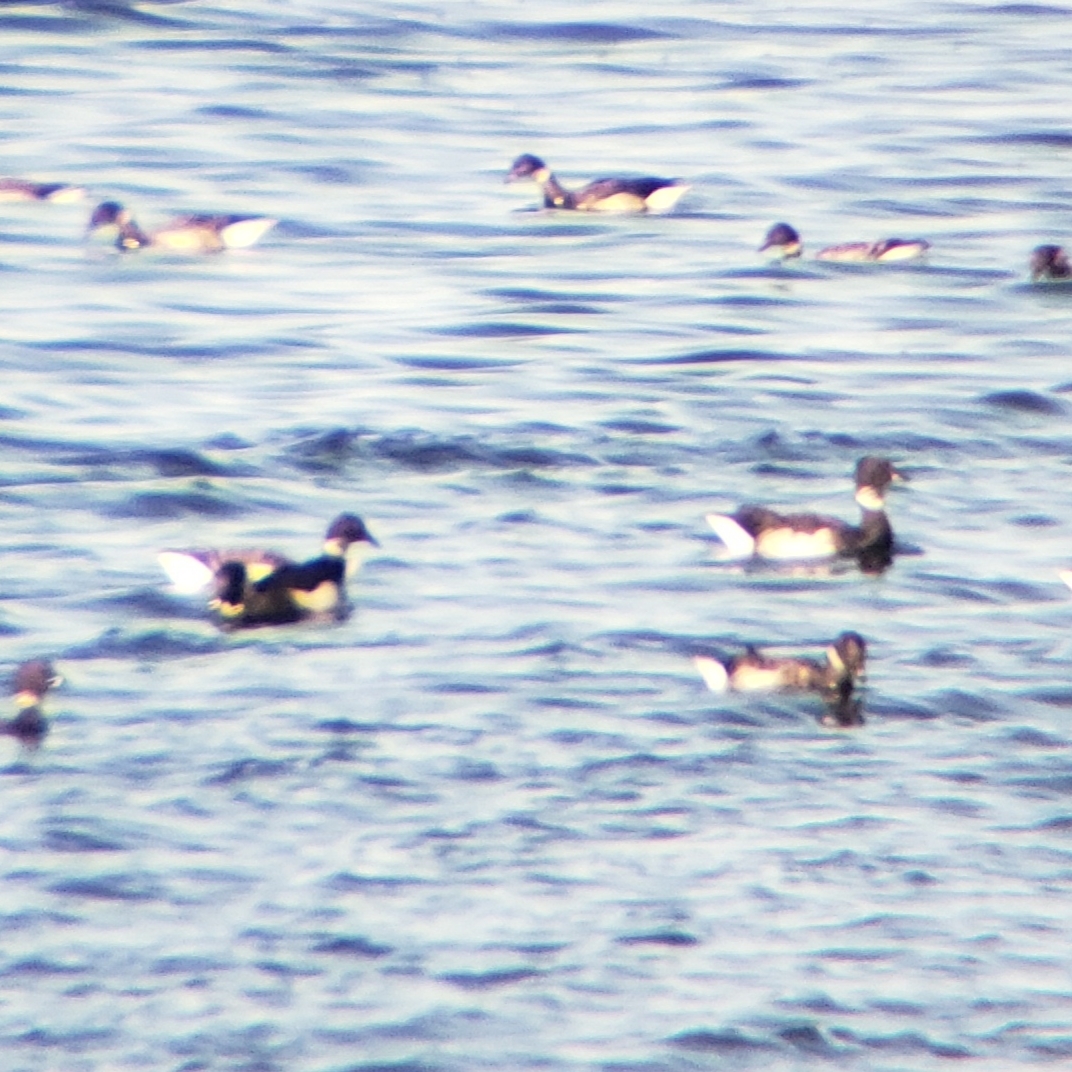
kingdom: Animalia
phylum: Chordata
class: Aves
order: Anseriformes
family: Anatidae
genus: Branta
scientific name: Branta bernicla
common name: Brant goose
